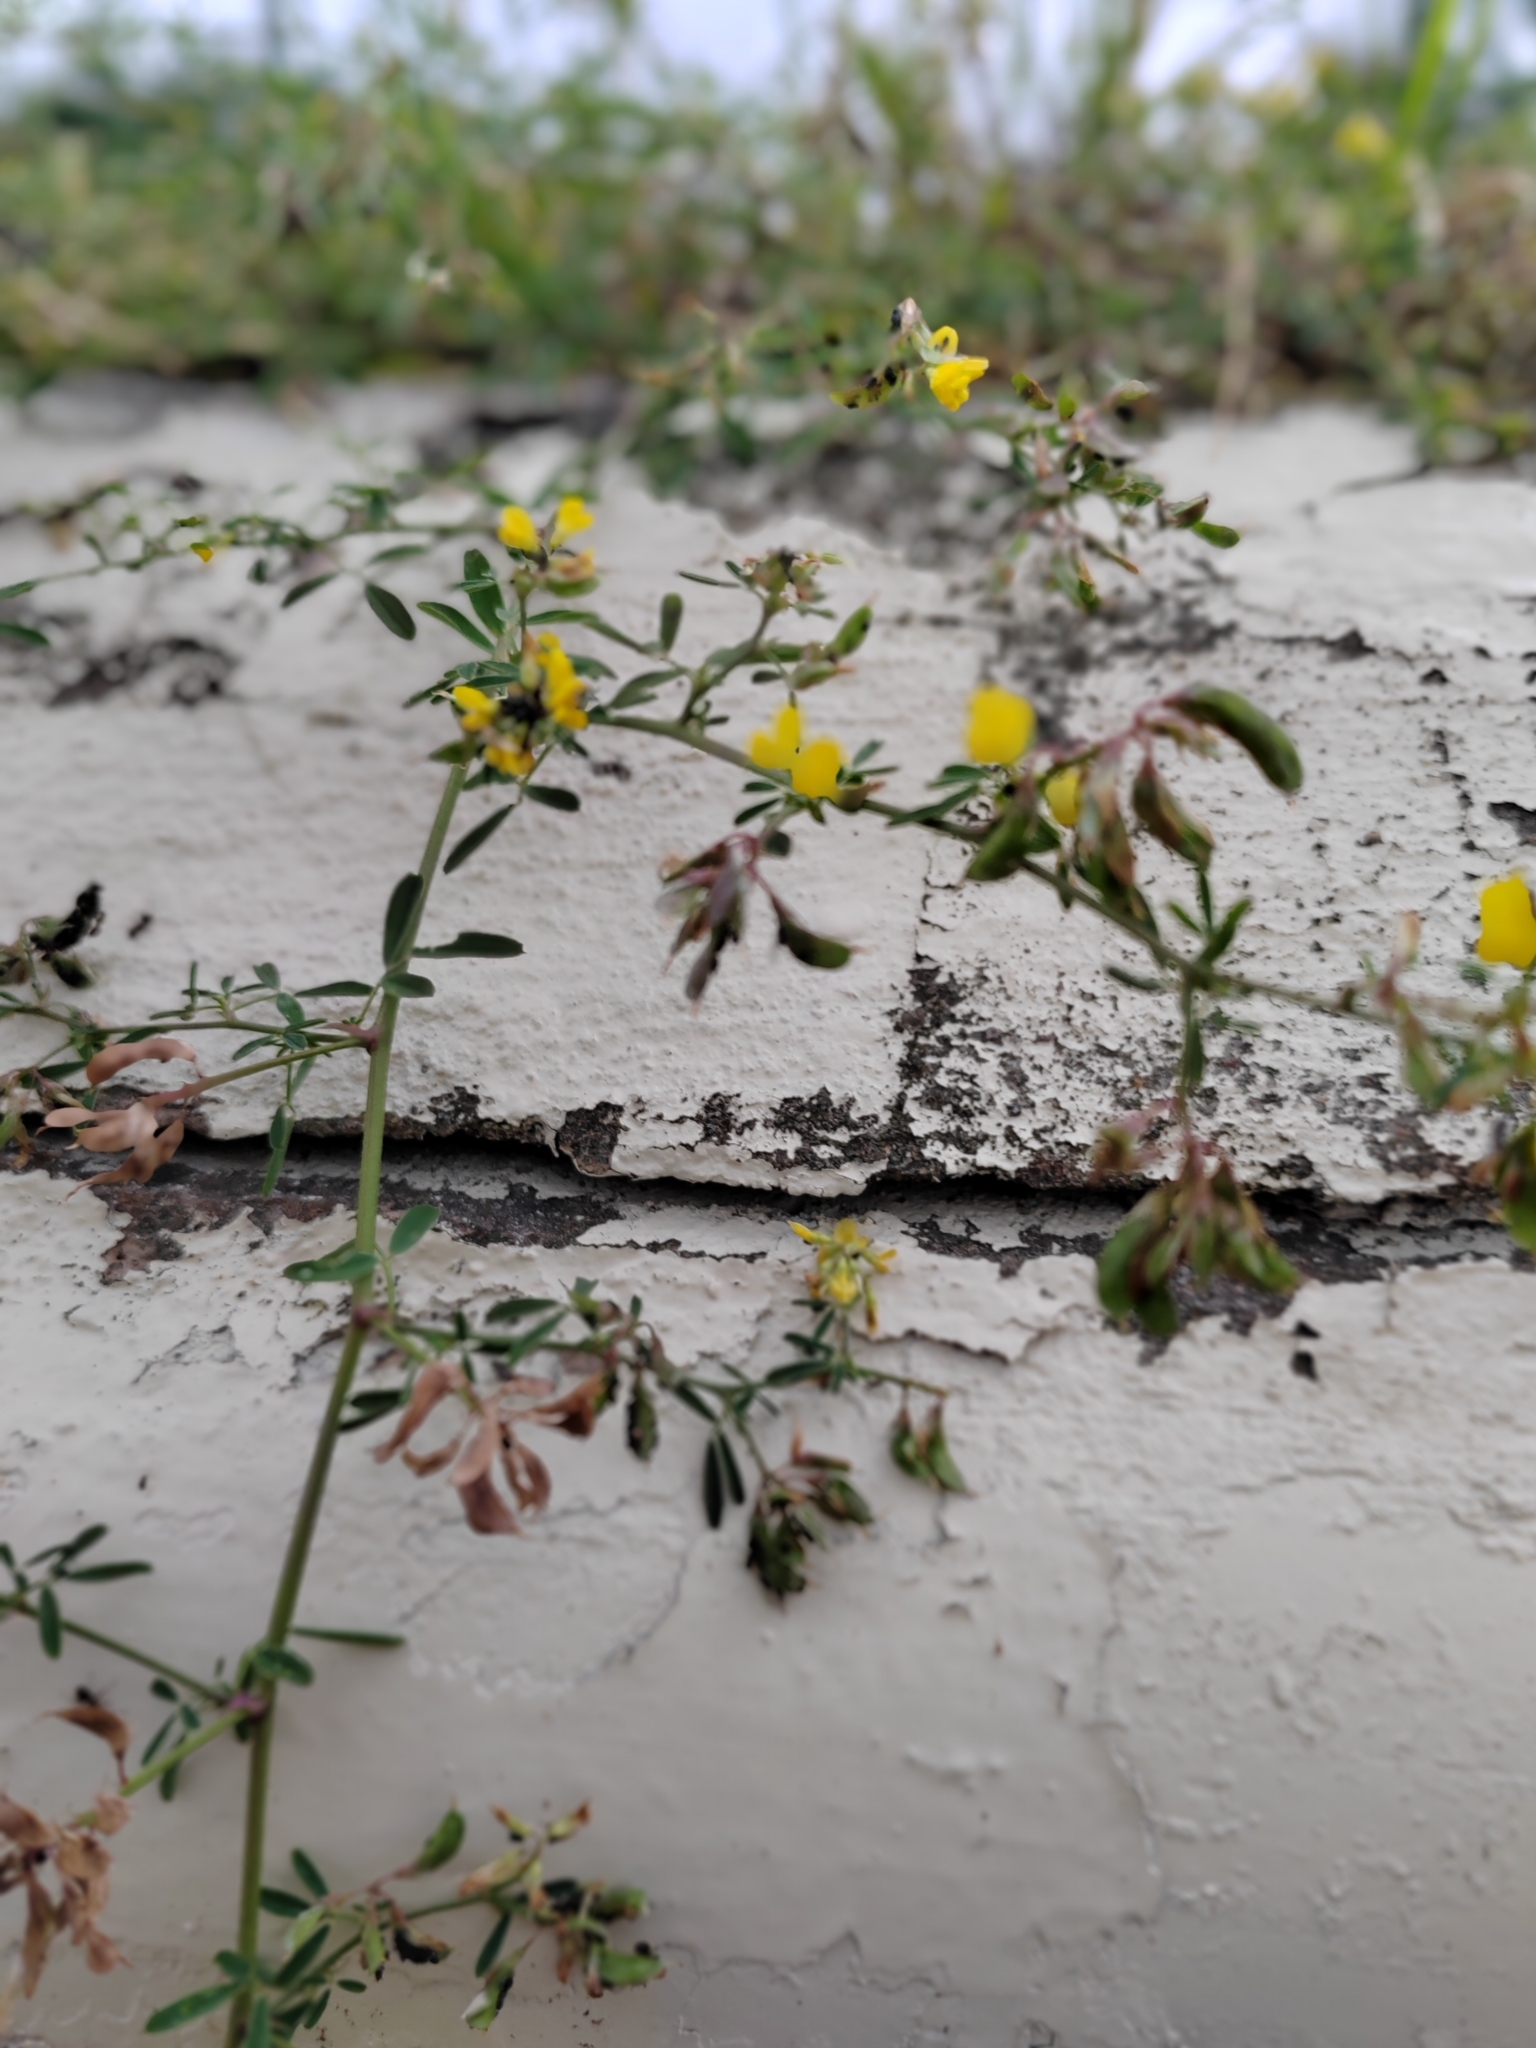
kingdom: Plantae
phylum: Tracheophyta
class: Magnoliopsida
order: Fabales
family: Fabaceae
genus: Lotus
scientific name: Lotus corniculatus
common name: Common bird's-foot-trefoil
